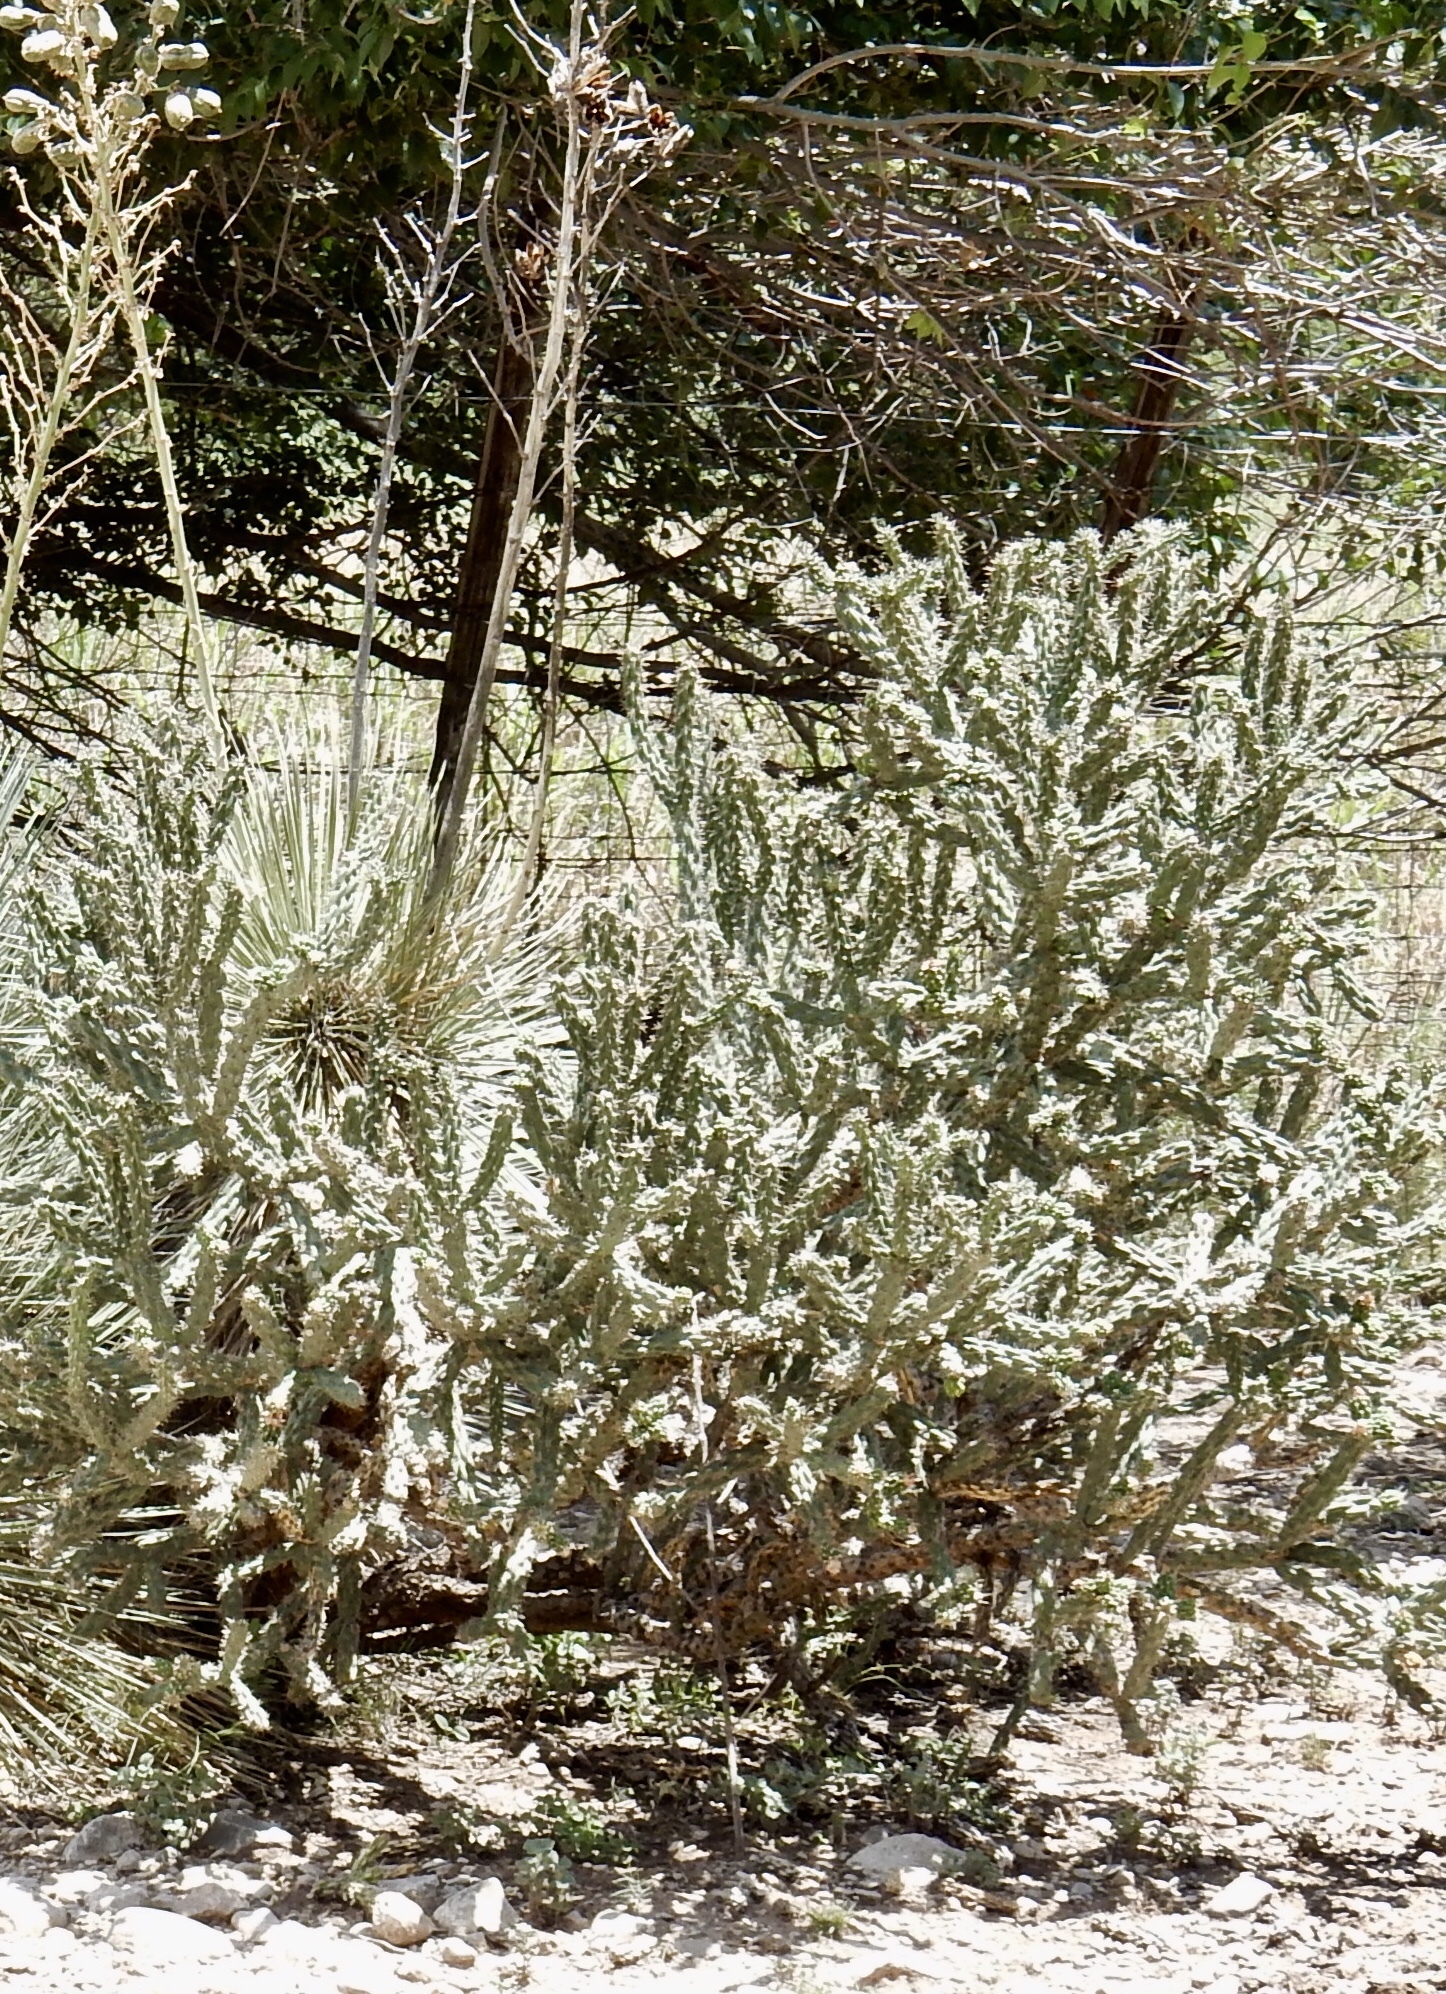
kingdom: Plantae
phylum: Tracheophyta
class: Magnoliopsida
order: Caryophyllales
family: Cactaceae
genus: Cylindropuntia
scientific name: Cylindropuntia imbricata
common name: Candelabrum cactus
